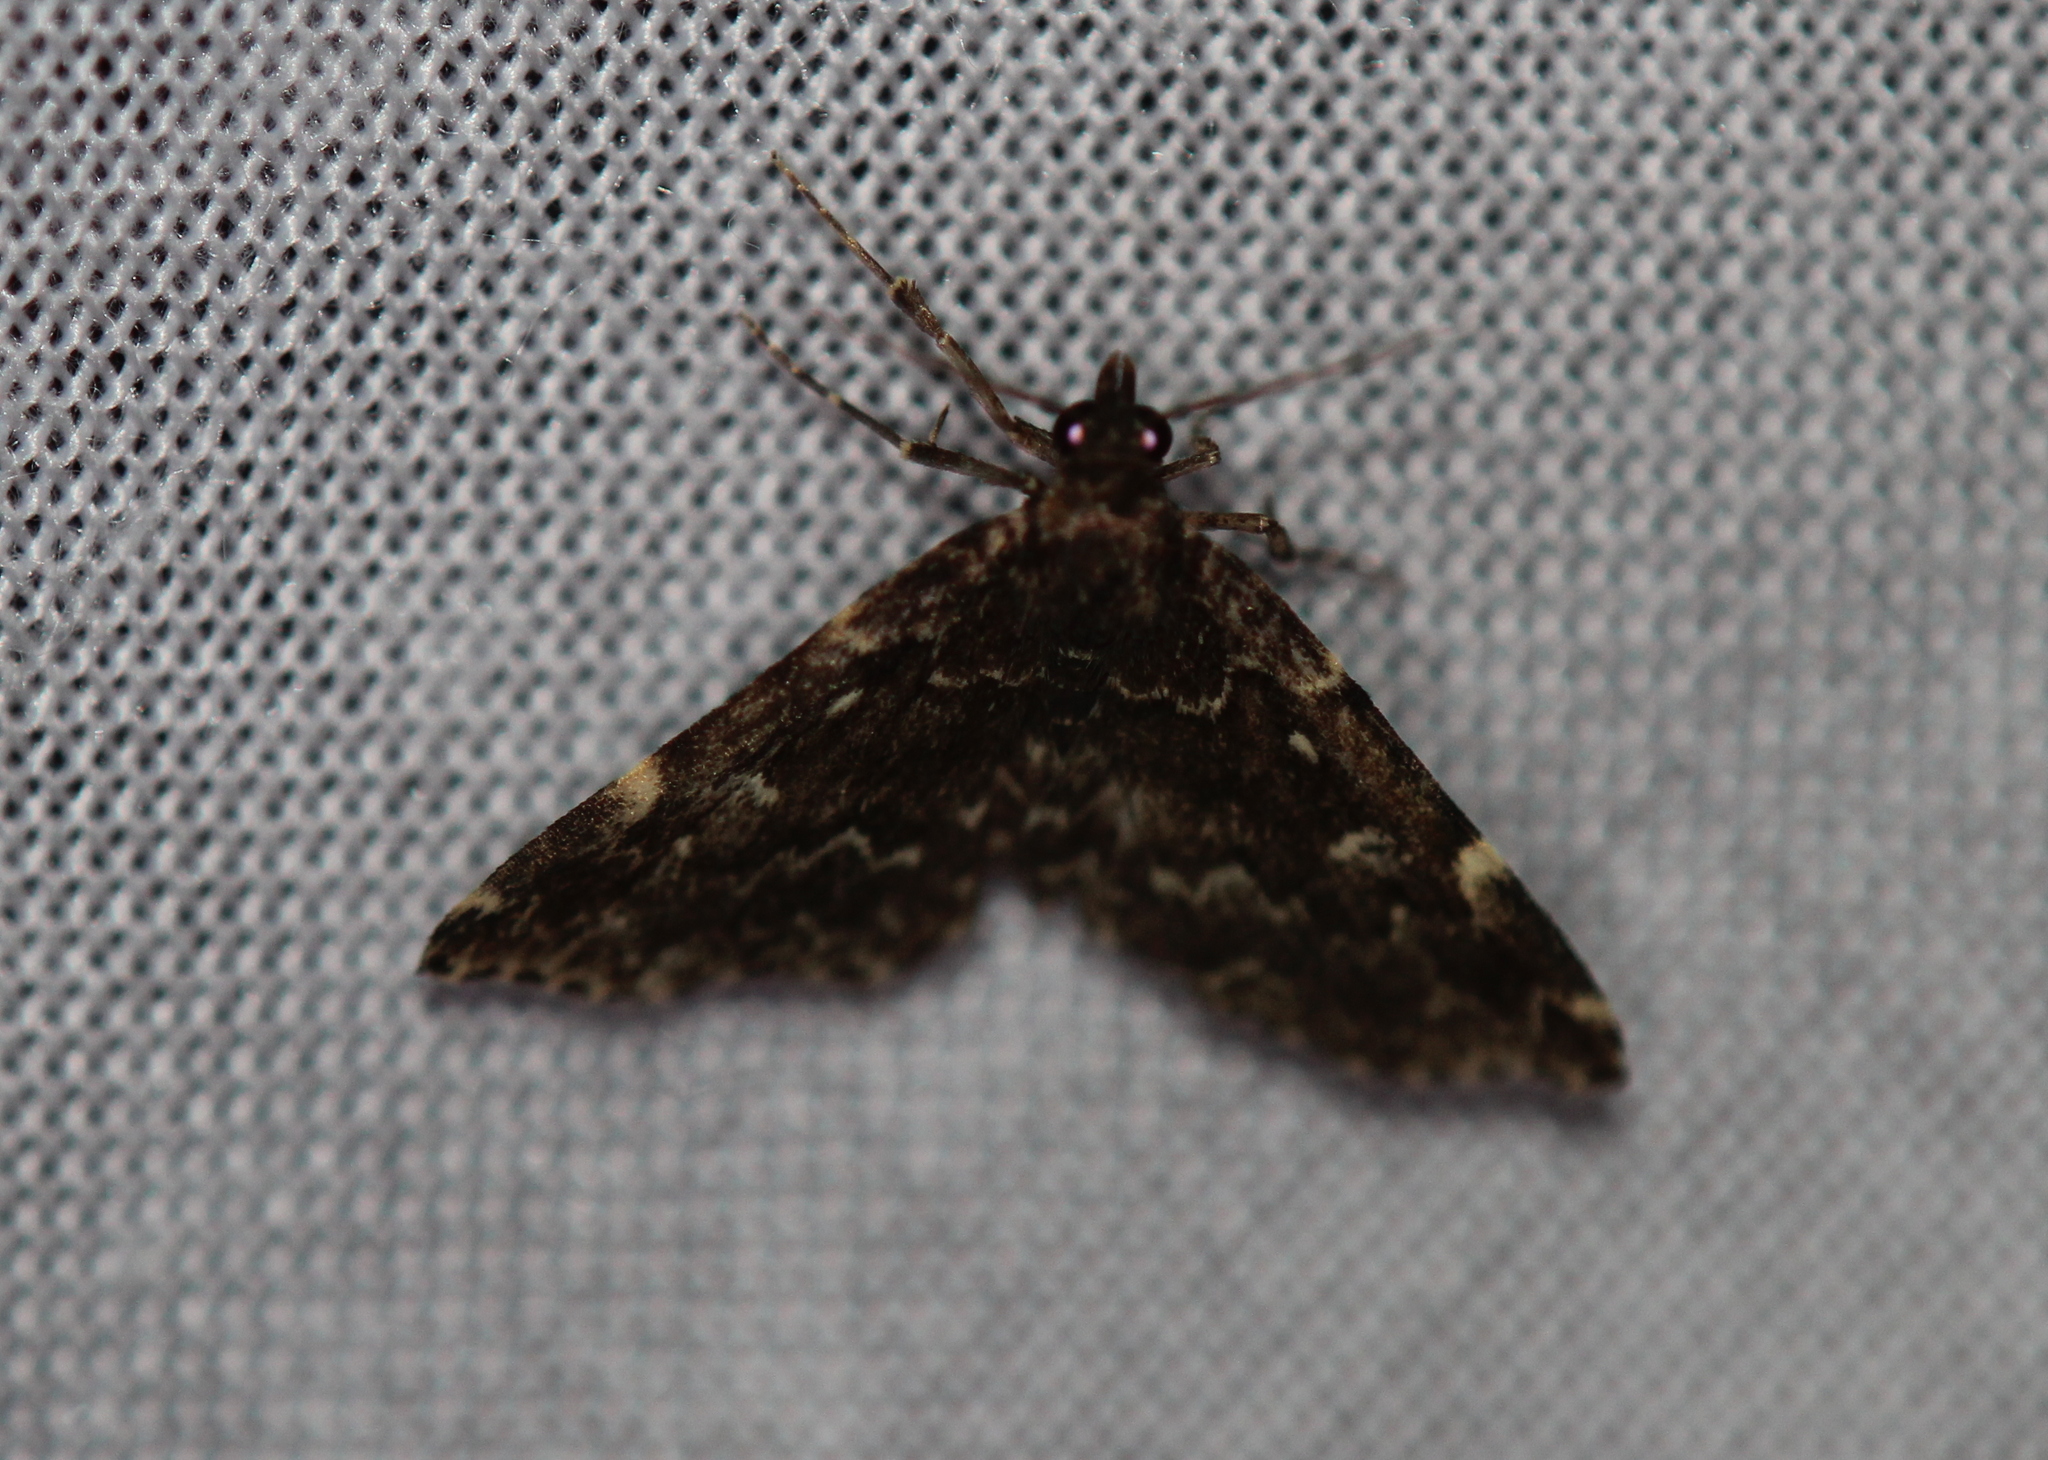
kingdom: Animalia
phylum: Arthropoda
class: Insecta
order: Lepidoptera
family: Erebidae
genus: Idia
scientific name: Idia scobialis
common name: Smoky idia moth
